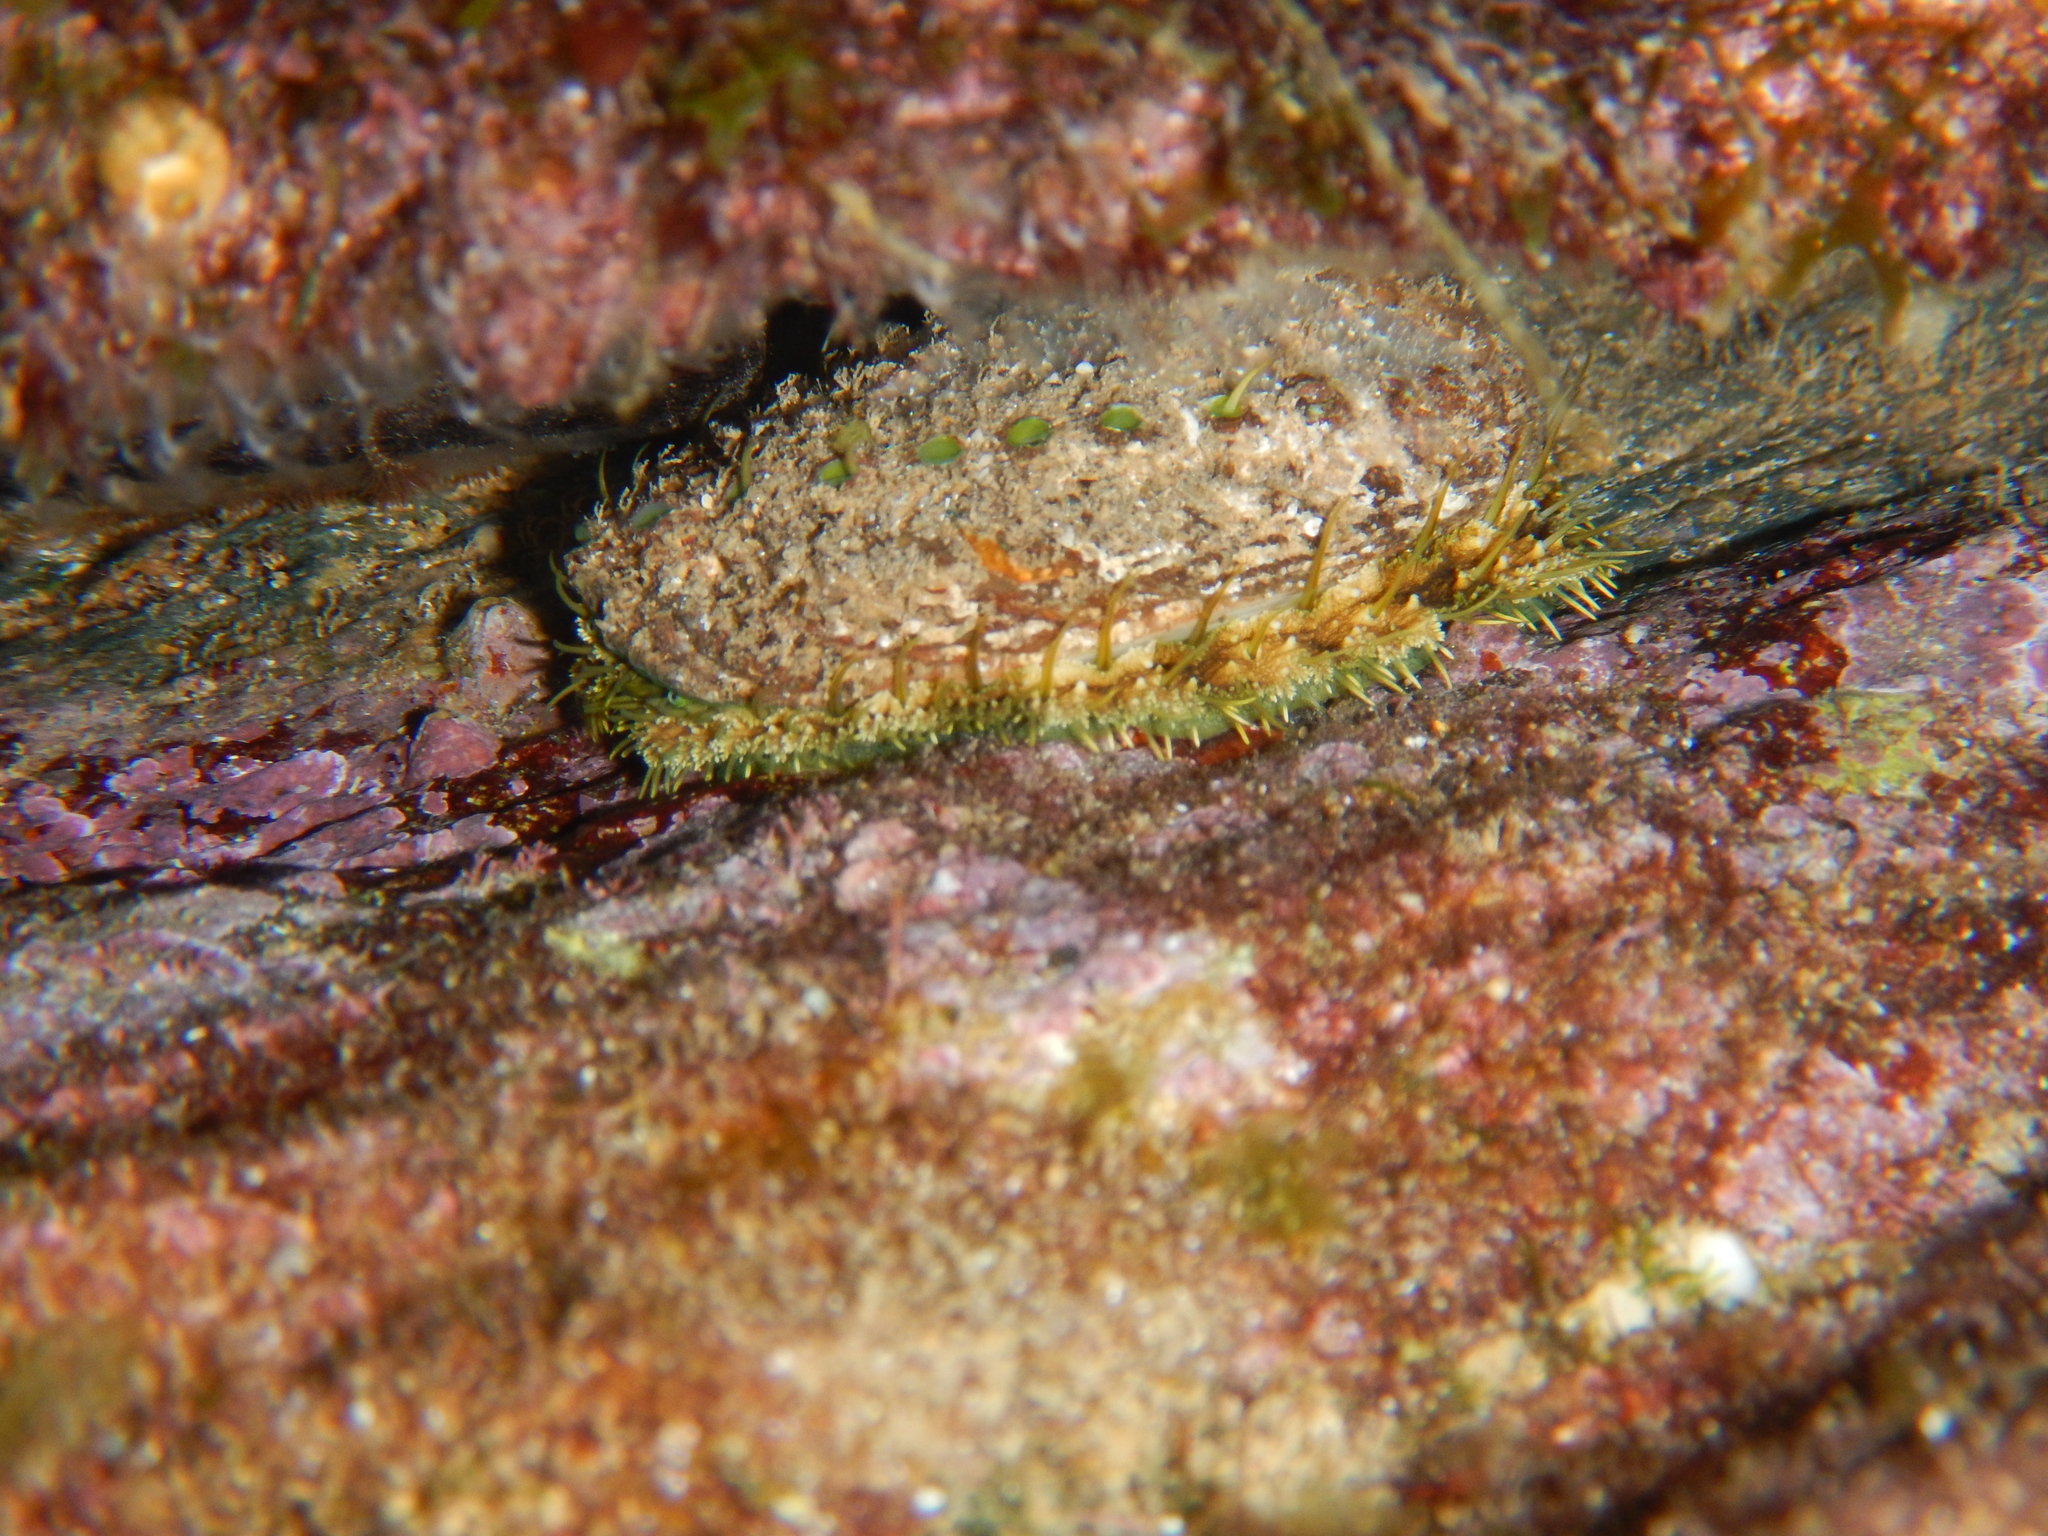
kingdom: Animalia
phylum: Mollusca
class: Gastropoda
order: Lepetellida
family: Haliotidae
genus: Haliotis
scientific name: Haliotis tuberculata
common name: Green ormer
